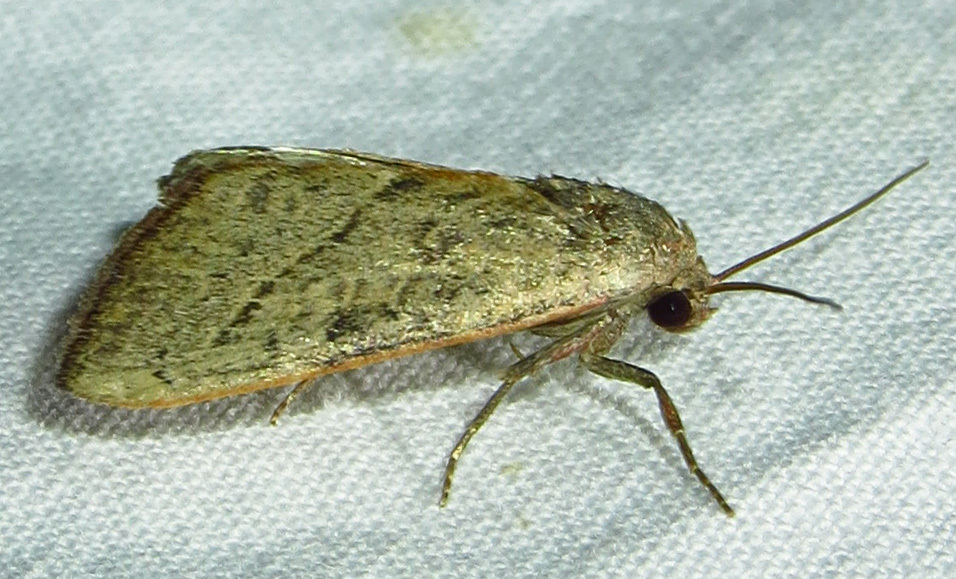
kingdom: Animalia
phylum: Arthropoda
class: Insecta
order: Lepidoptera
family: Noctuidae
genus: Galgula
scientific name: Galgula partita
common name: Wedgeling
